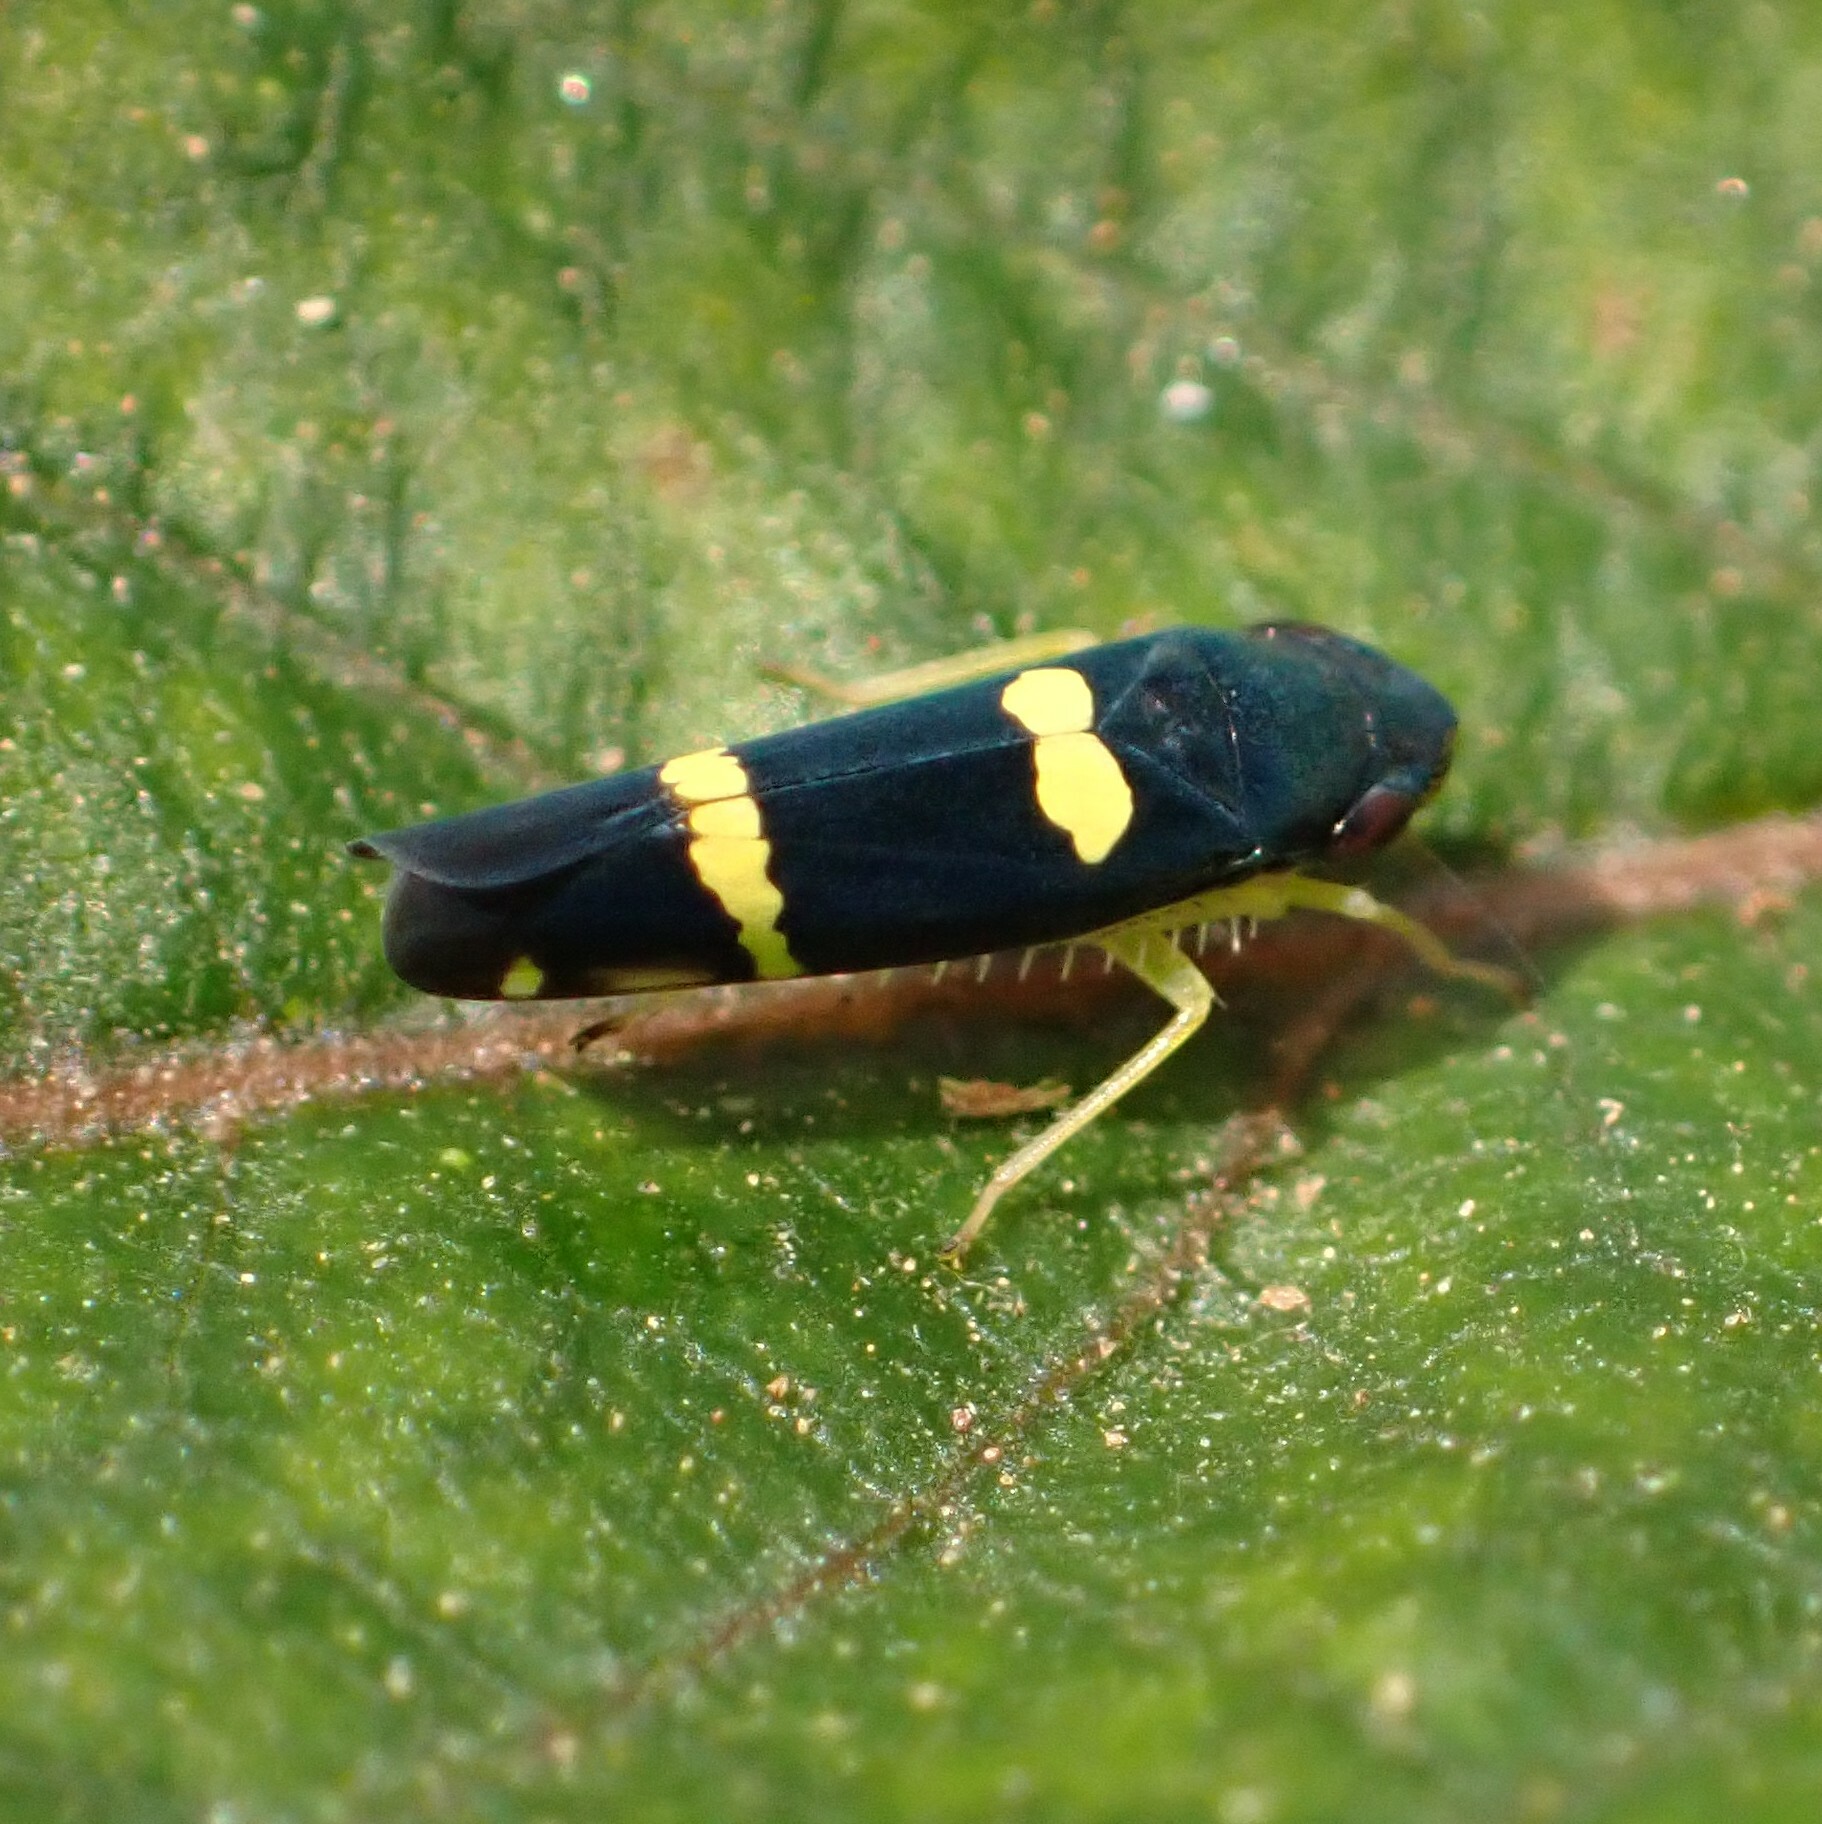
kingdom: Animalia
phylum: Arthropoda
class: Insecta
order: Hemiptera
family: Cicadellidae
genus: Microgoniella
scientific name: Microgoniella pudica
